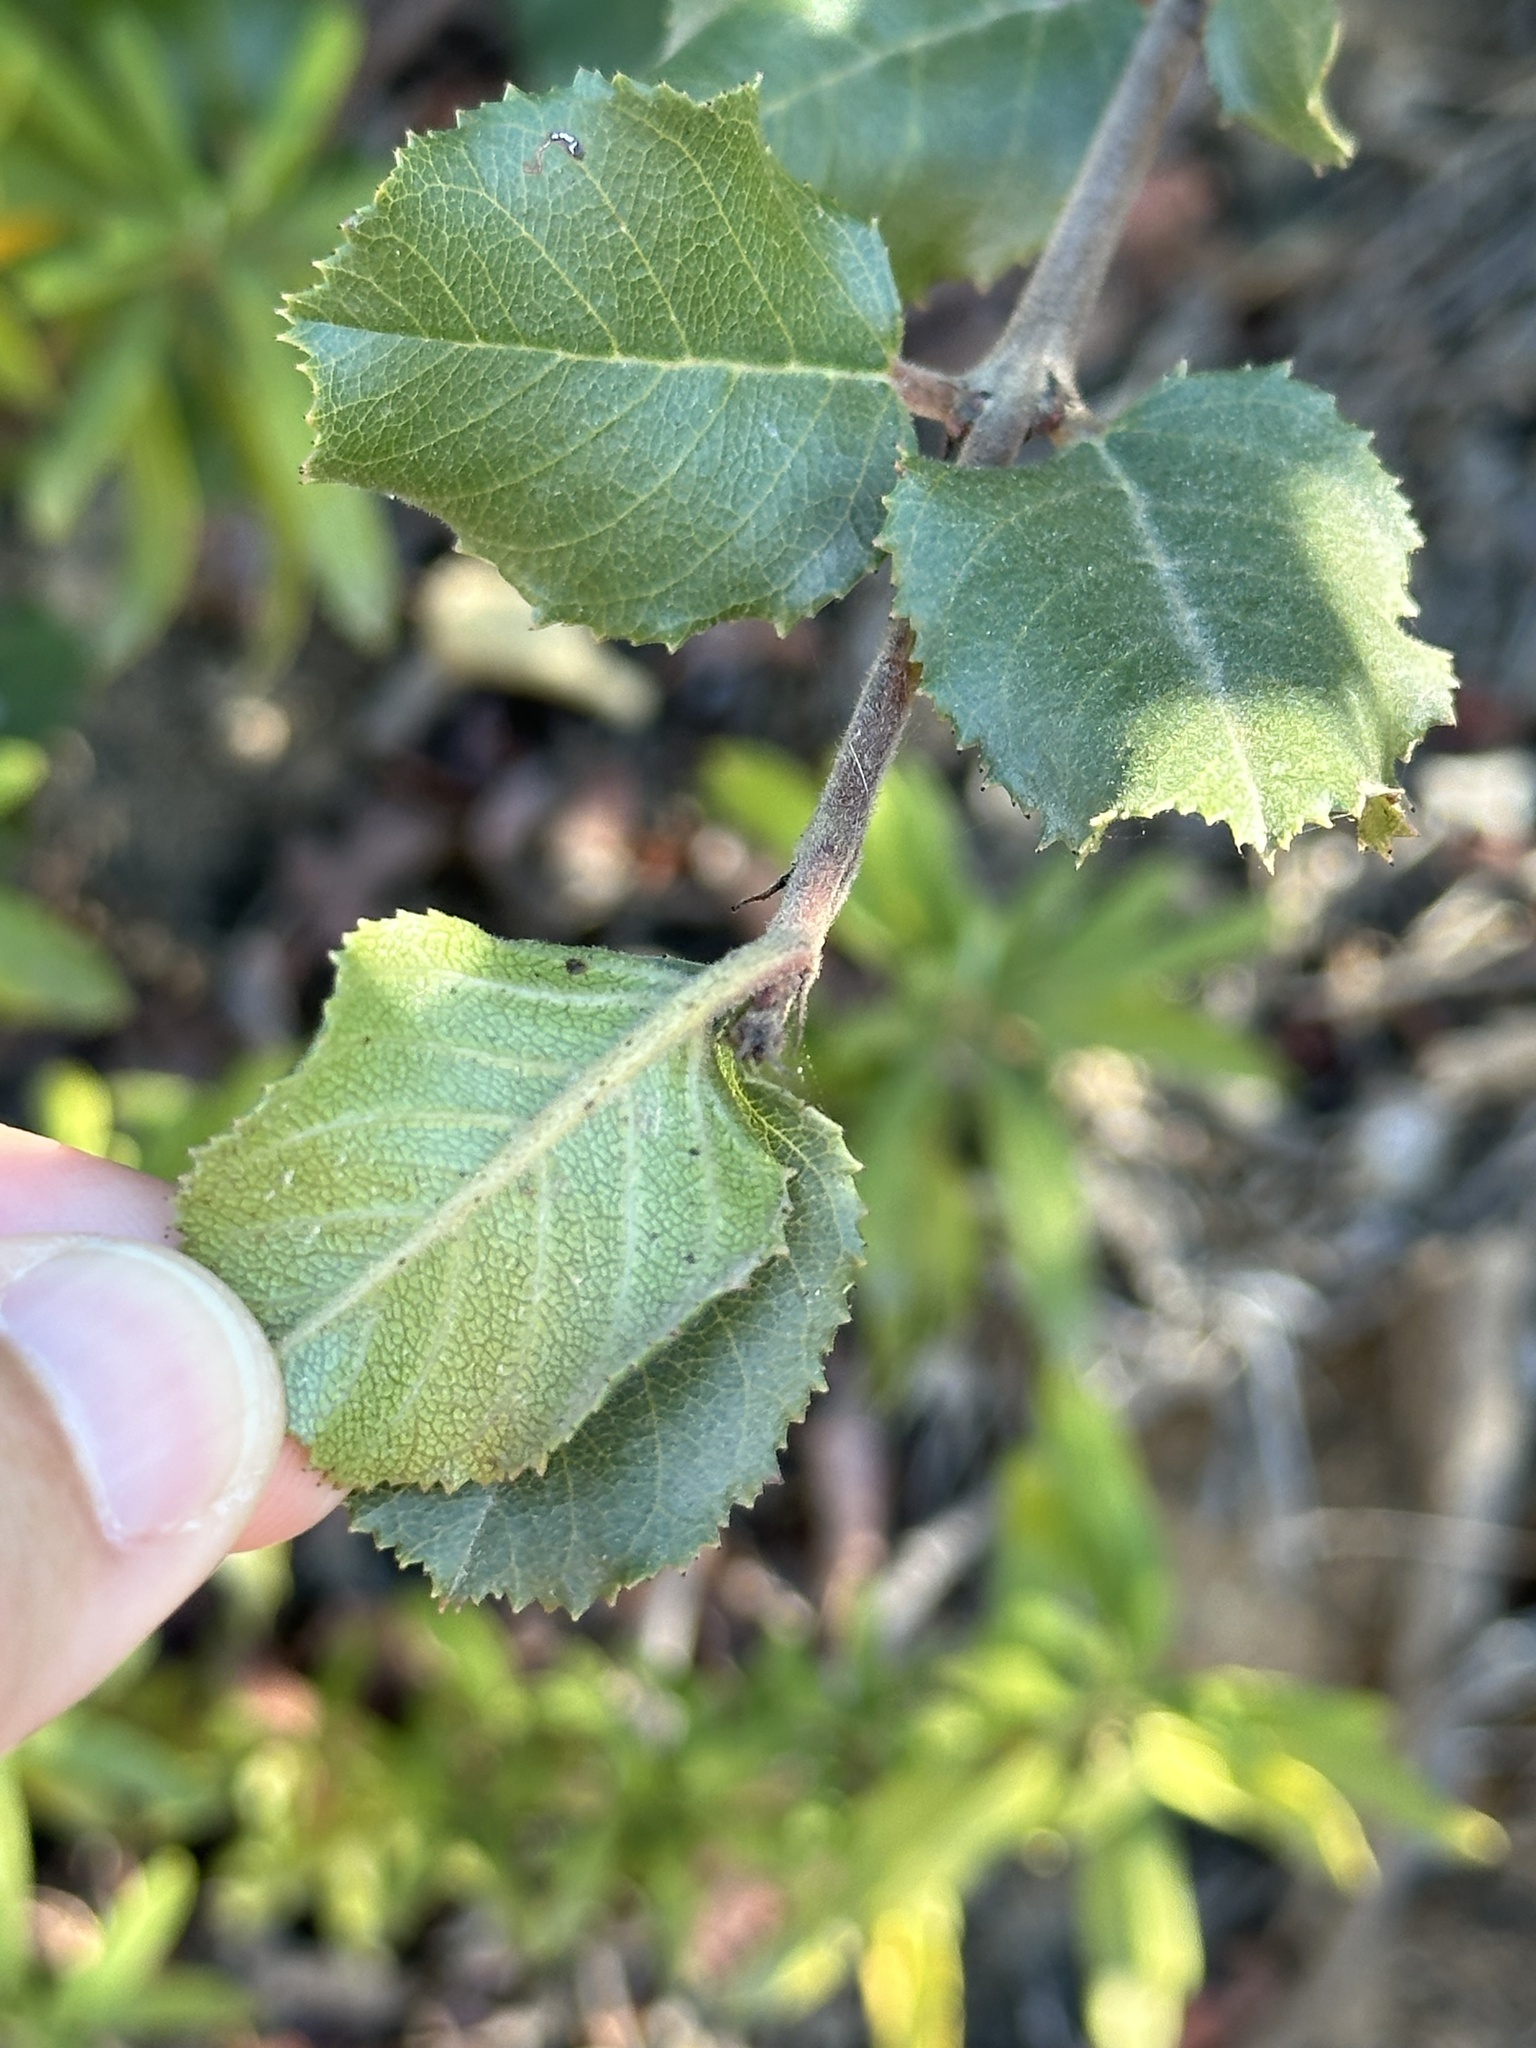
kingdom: Plantae
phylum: Tracheophyta
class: Magnoliopsida
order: Rosales
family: Rhamnaceae
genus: Endotropis
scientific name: Endotropis crocea
